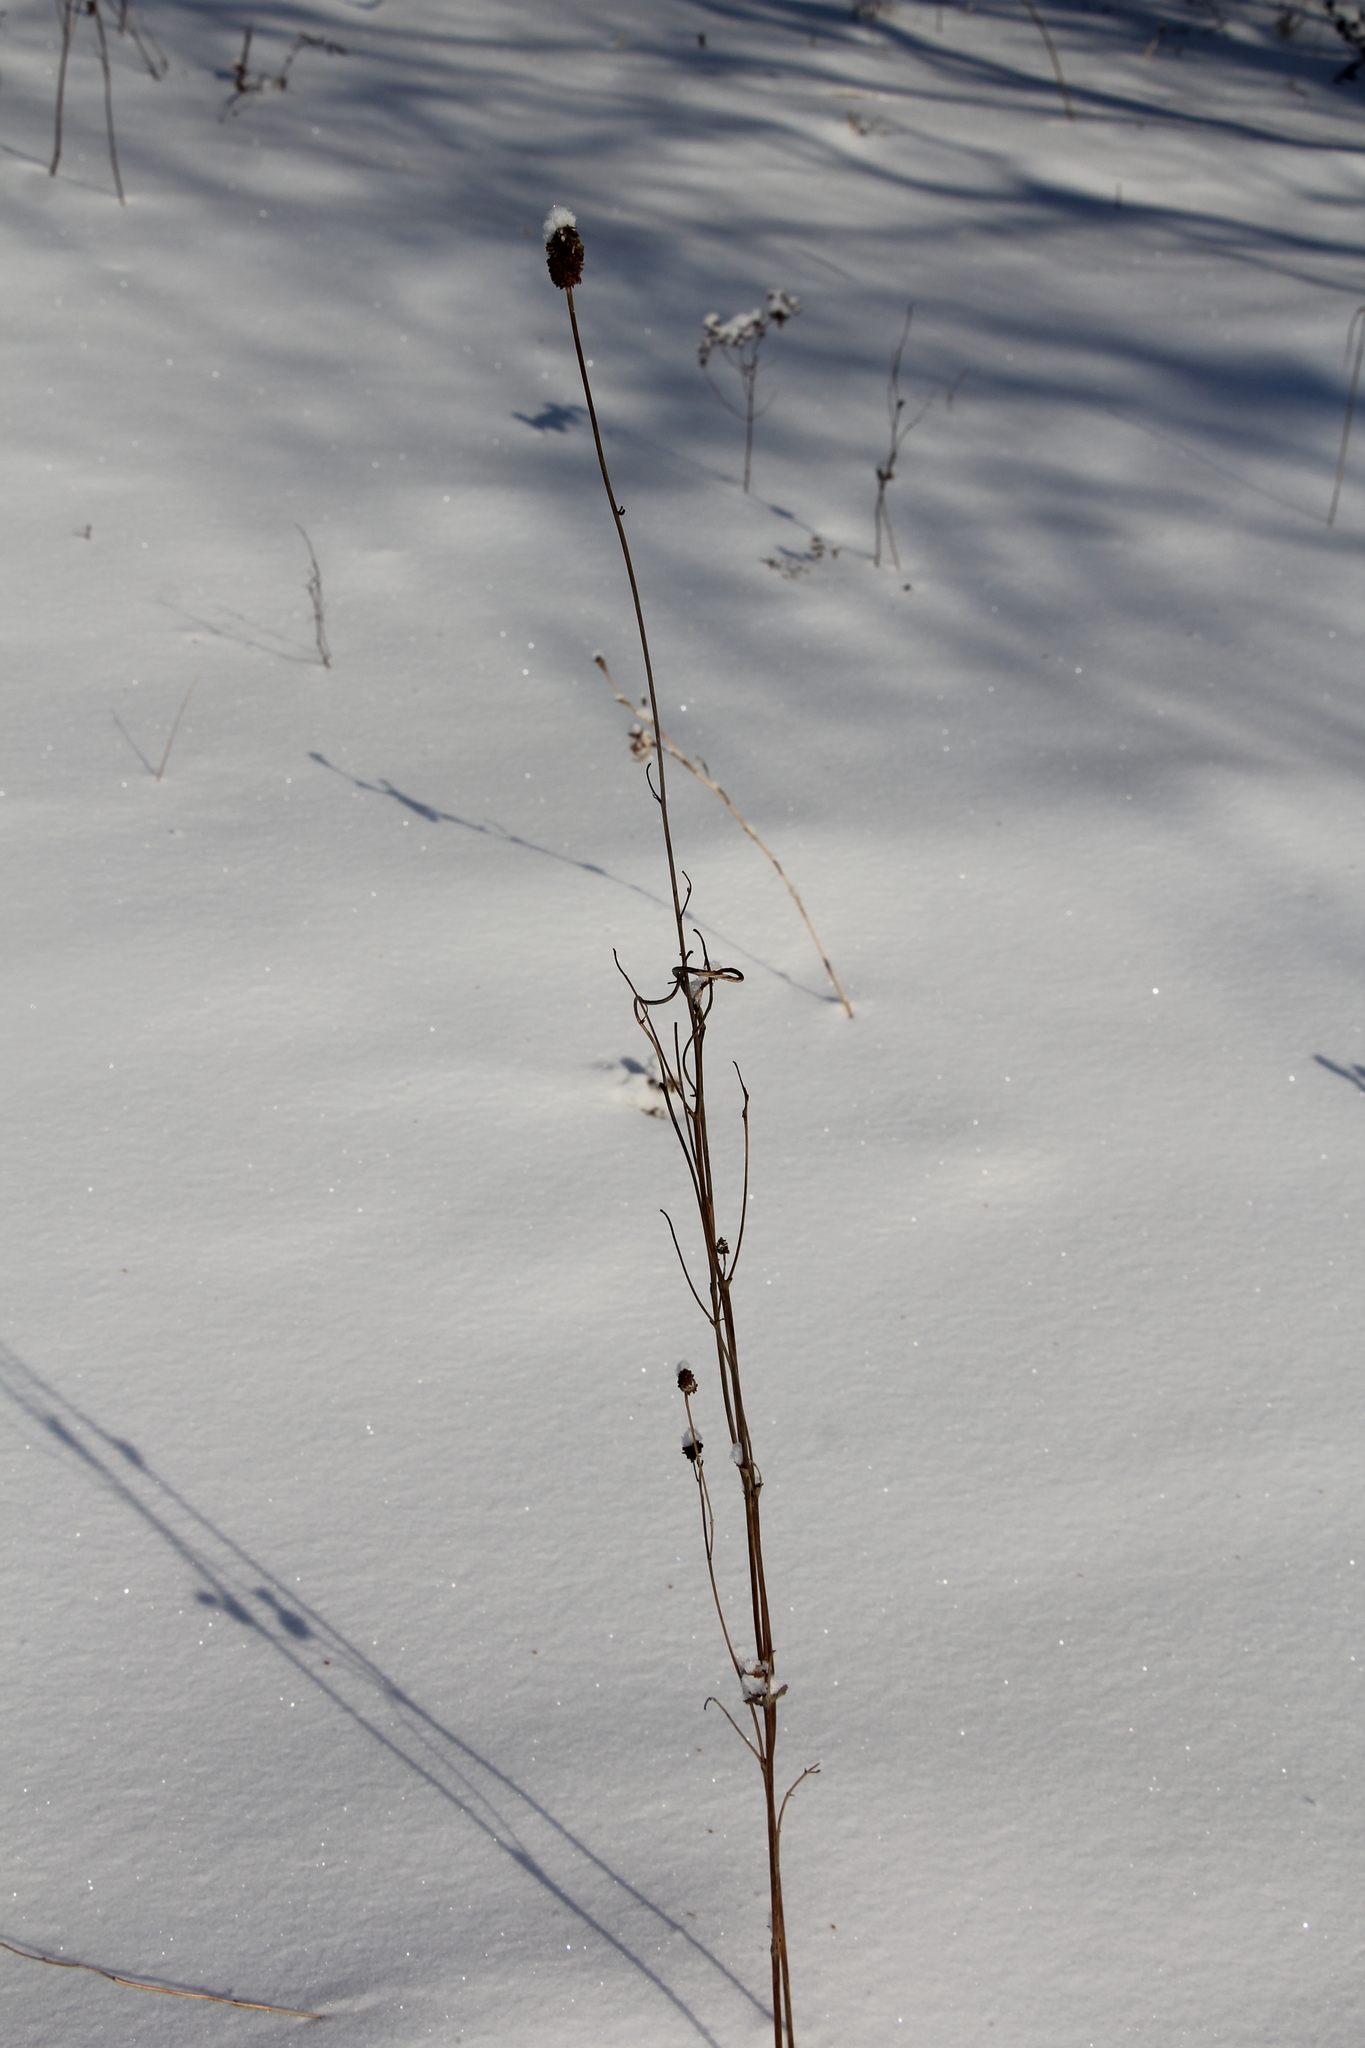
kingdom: Plantae
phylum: Tracheophyta
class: Magnoliopsida
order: Rosales
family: Rosaceae
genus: Sanguisorba
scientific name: Sanguisorba officinalis
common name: Great burnet
